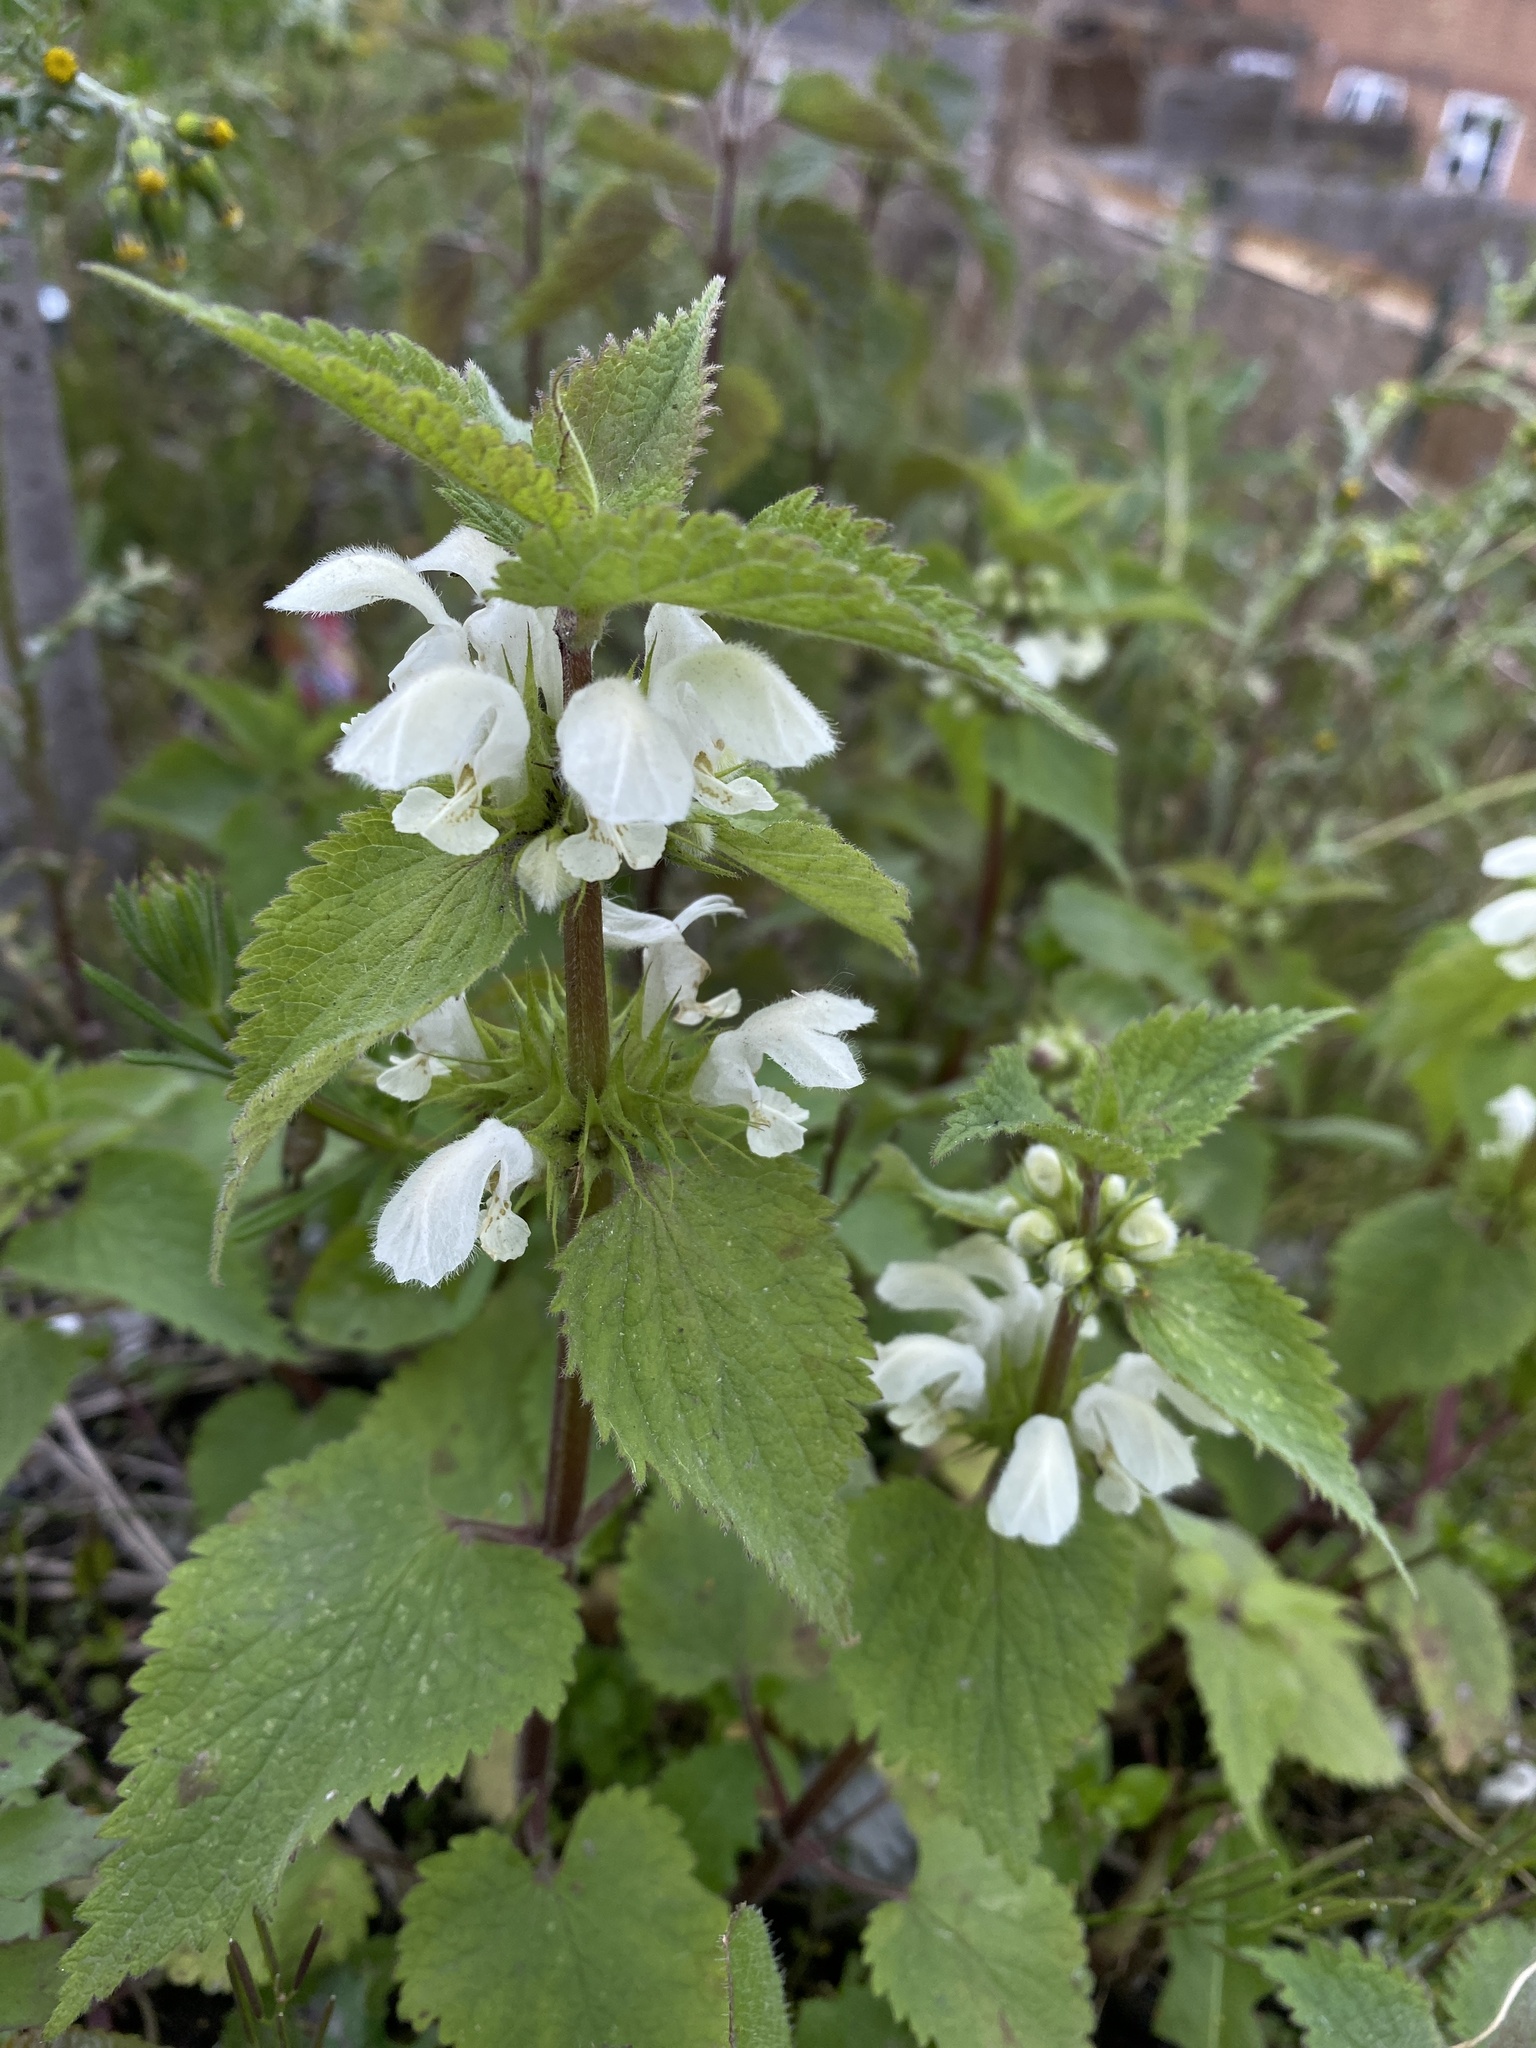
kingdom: Plantae
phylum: Tracheophyta
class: Magnoliopsida
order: Lamiales
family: Lamiaceae
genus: Lamium
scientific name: Lamium album
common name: White dead-nettle
